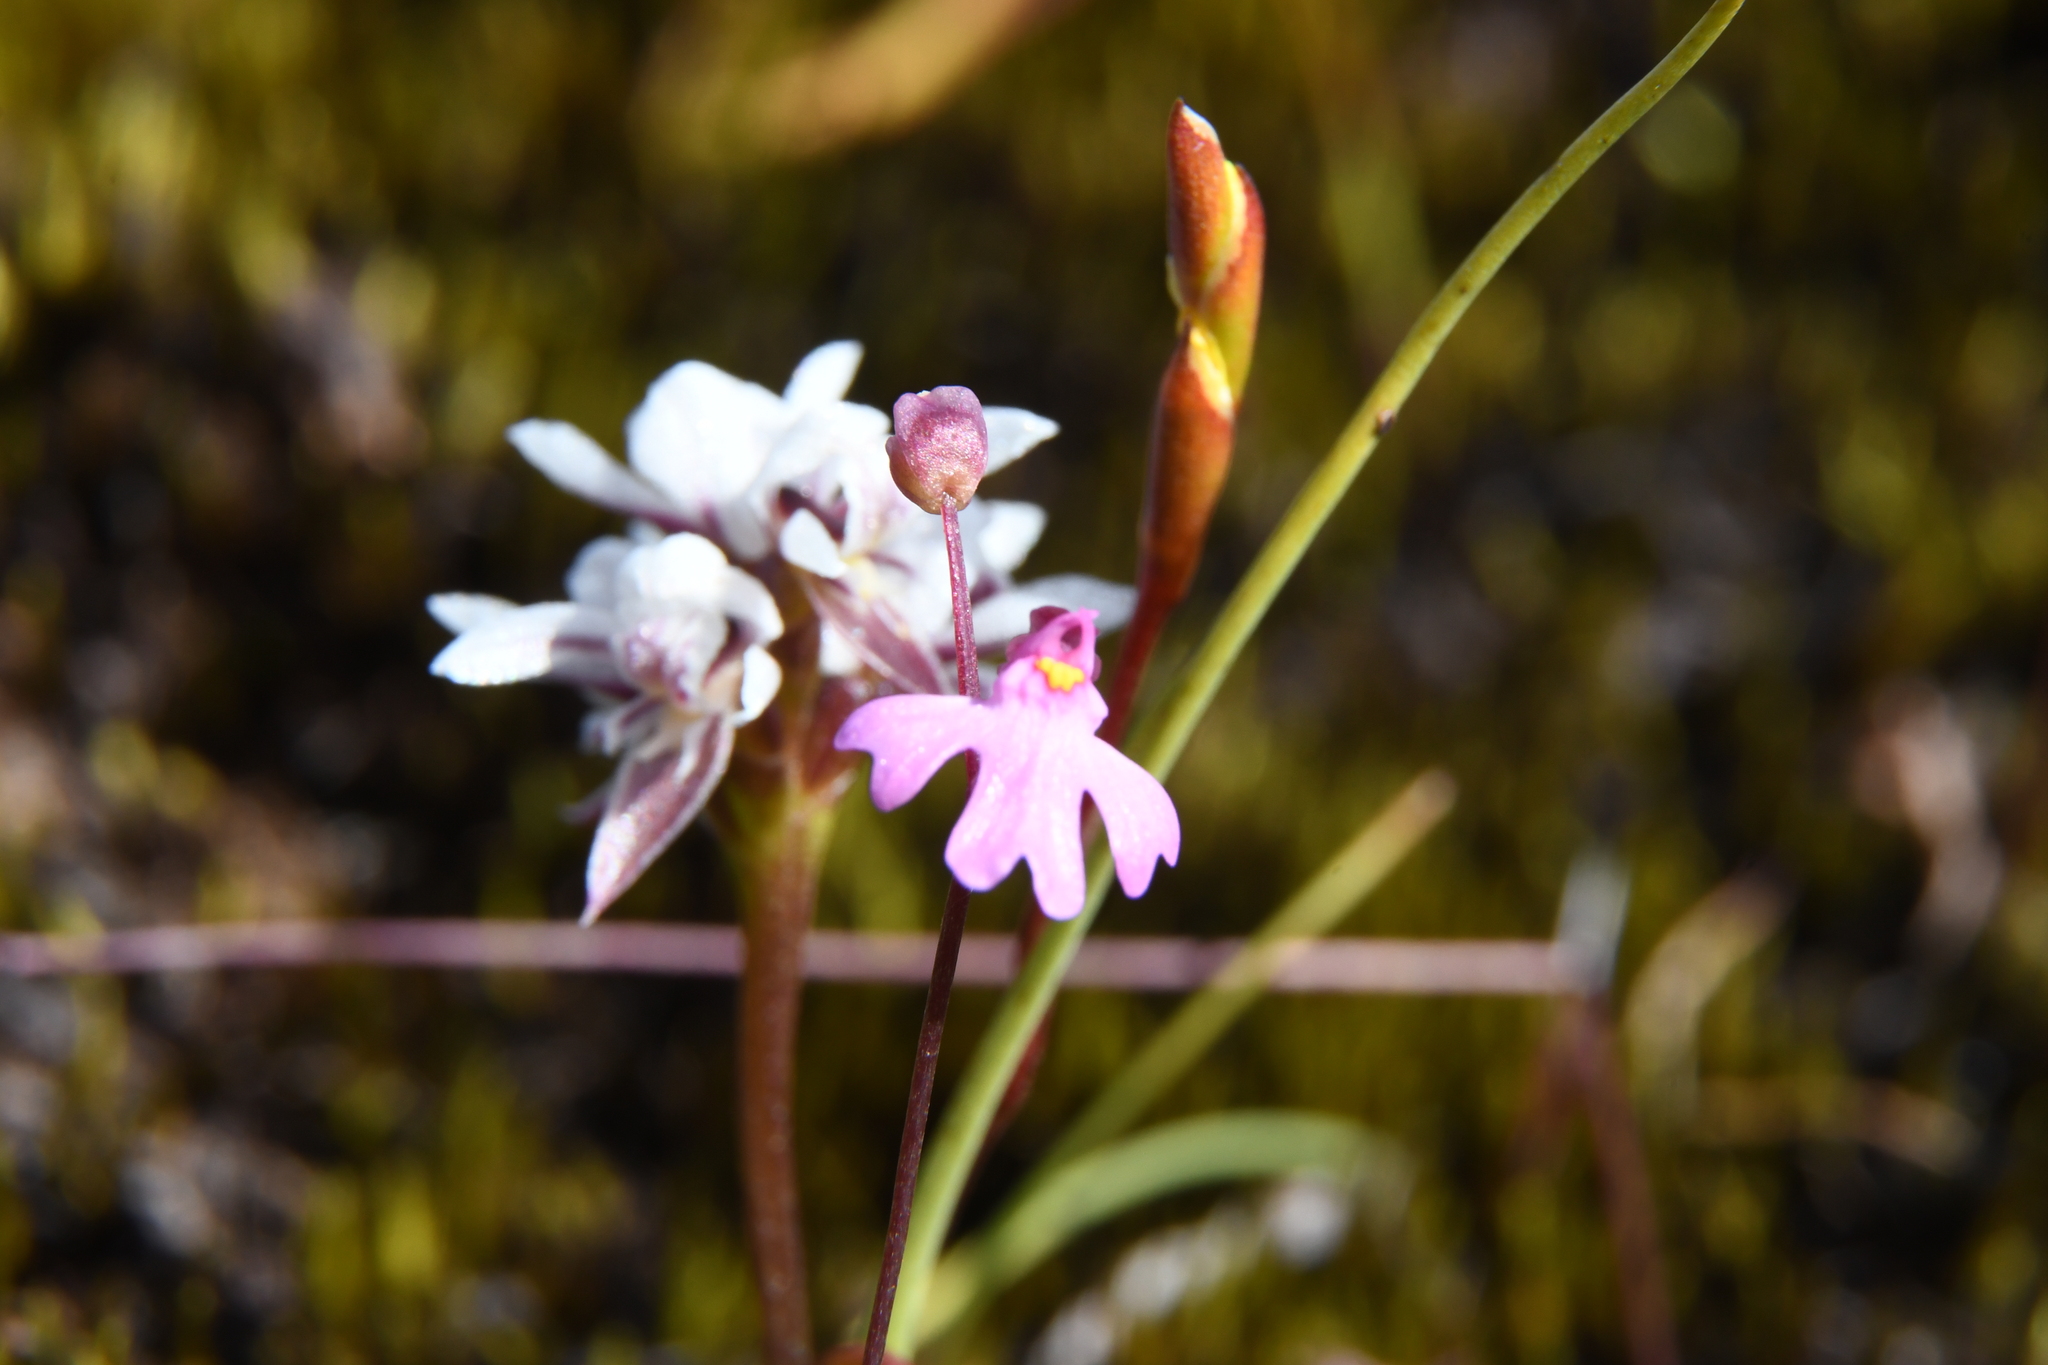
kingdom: Plantae
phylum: Tracheophyta
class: Liliopsida
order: Asparagales
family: Orchidaceae
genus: Prasophyllum
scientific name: Prasophyllum cucullatum
